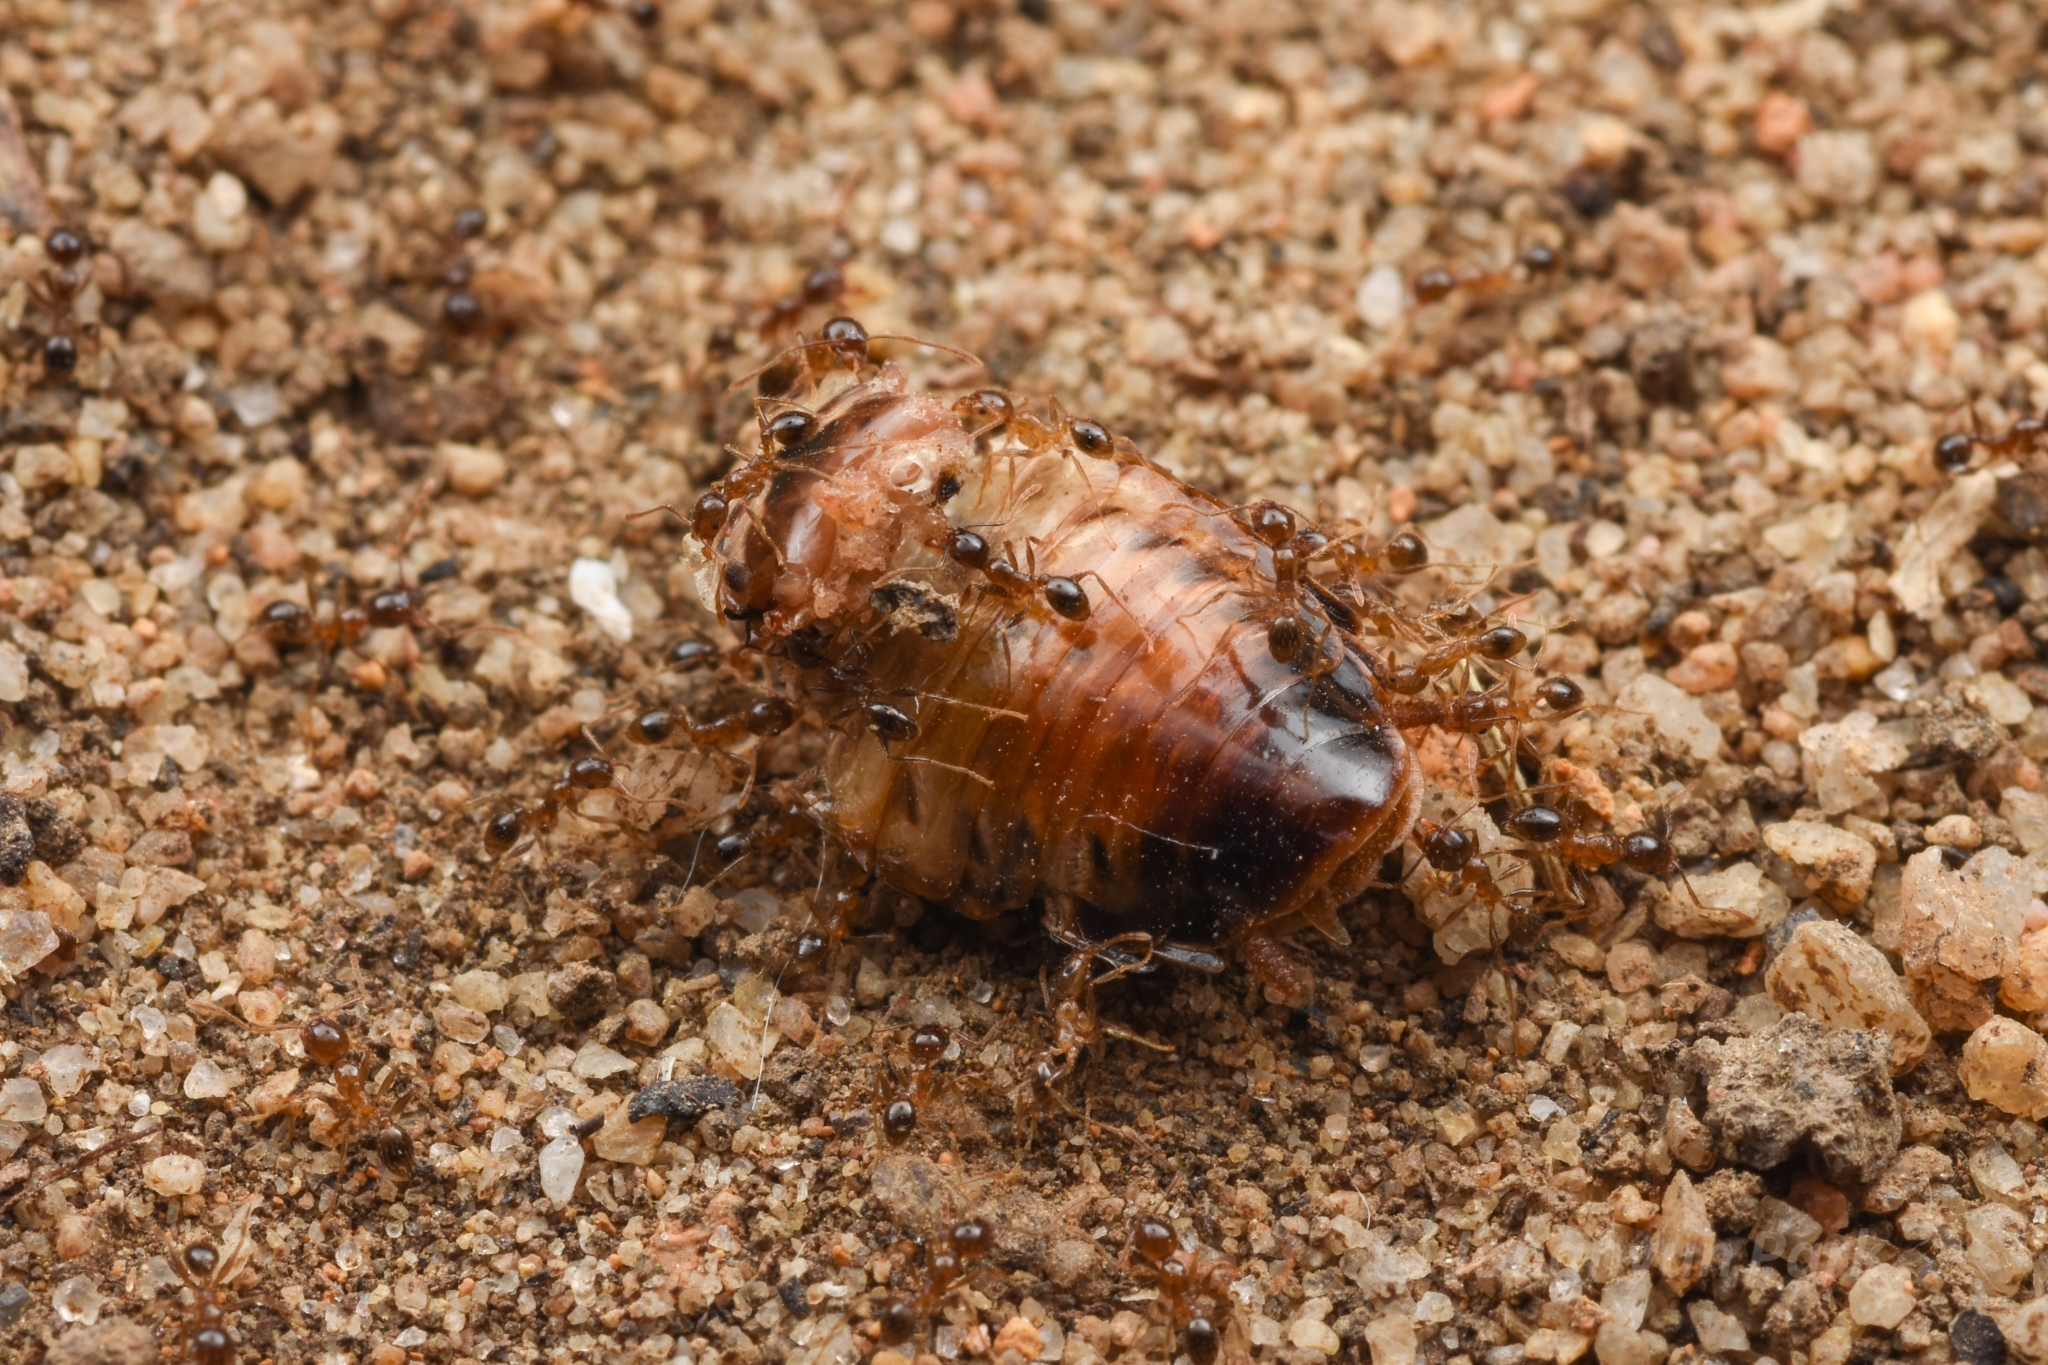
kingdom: Animalia
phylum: Arthropoda
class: Insecta
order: Hymenoptera
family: Formicidae
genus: Pheidole
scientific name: Pheidole megacephala
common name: Bigheaded ant
